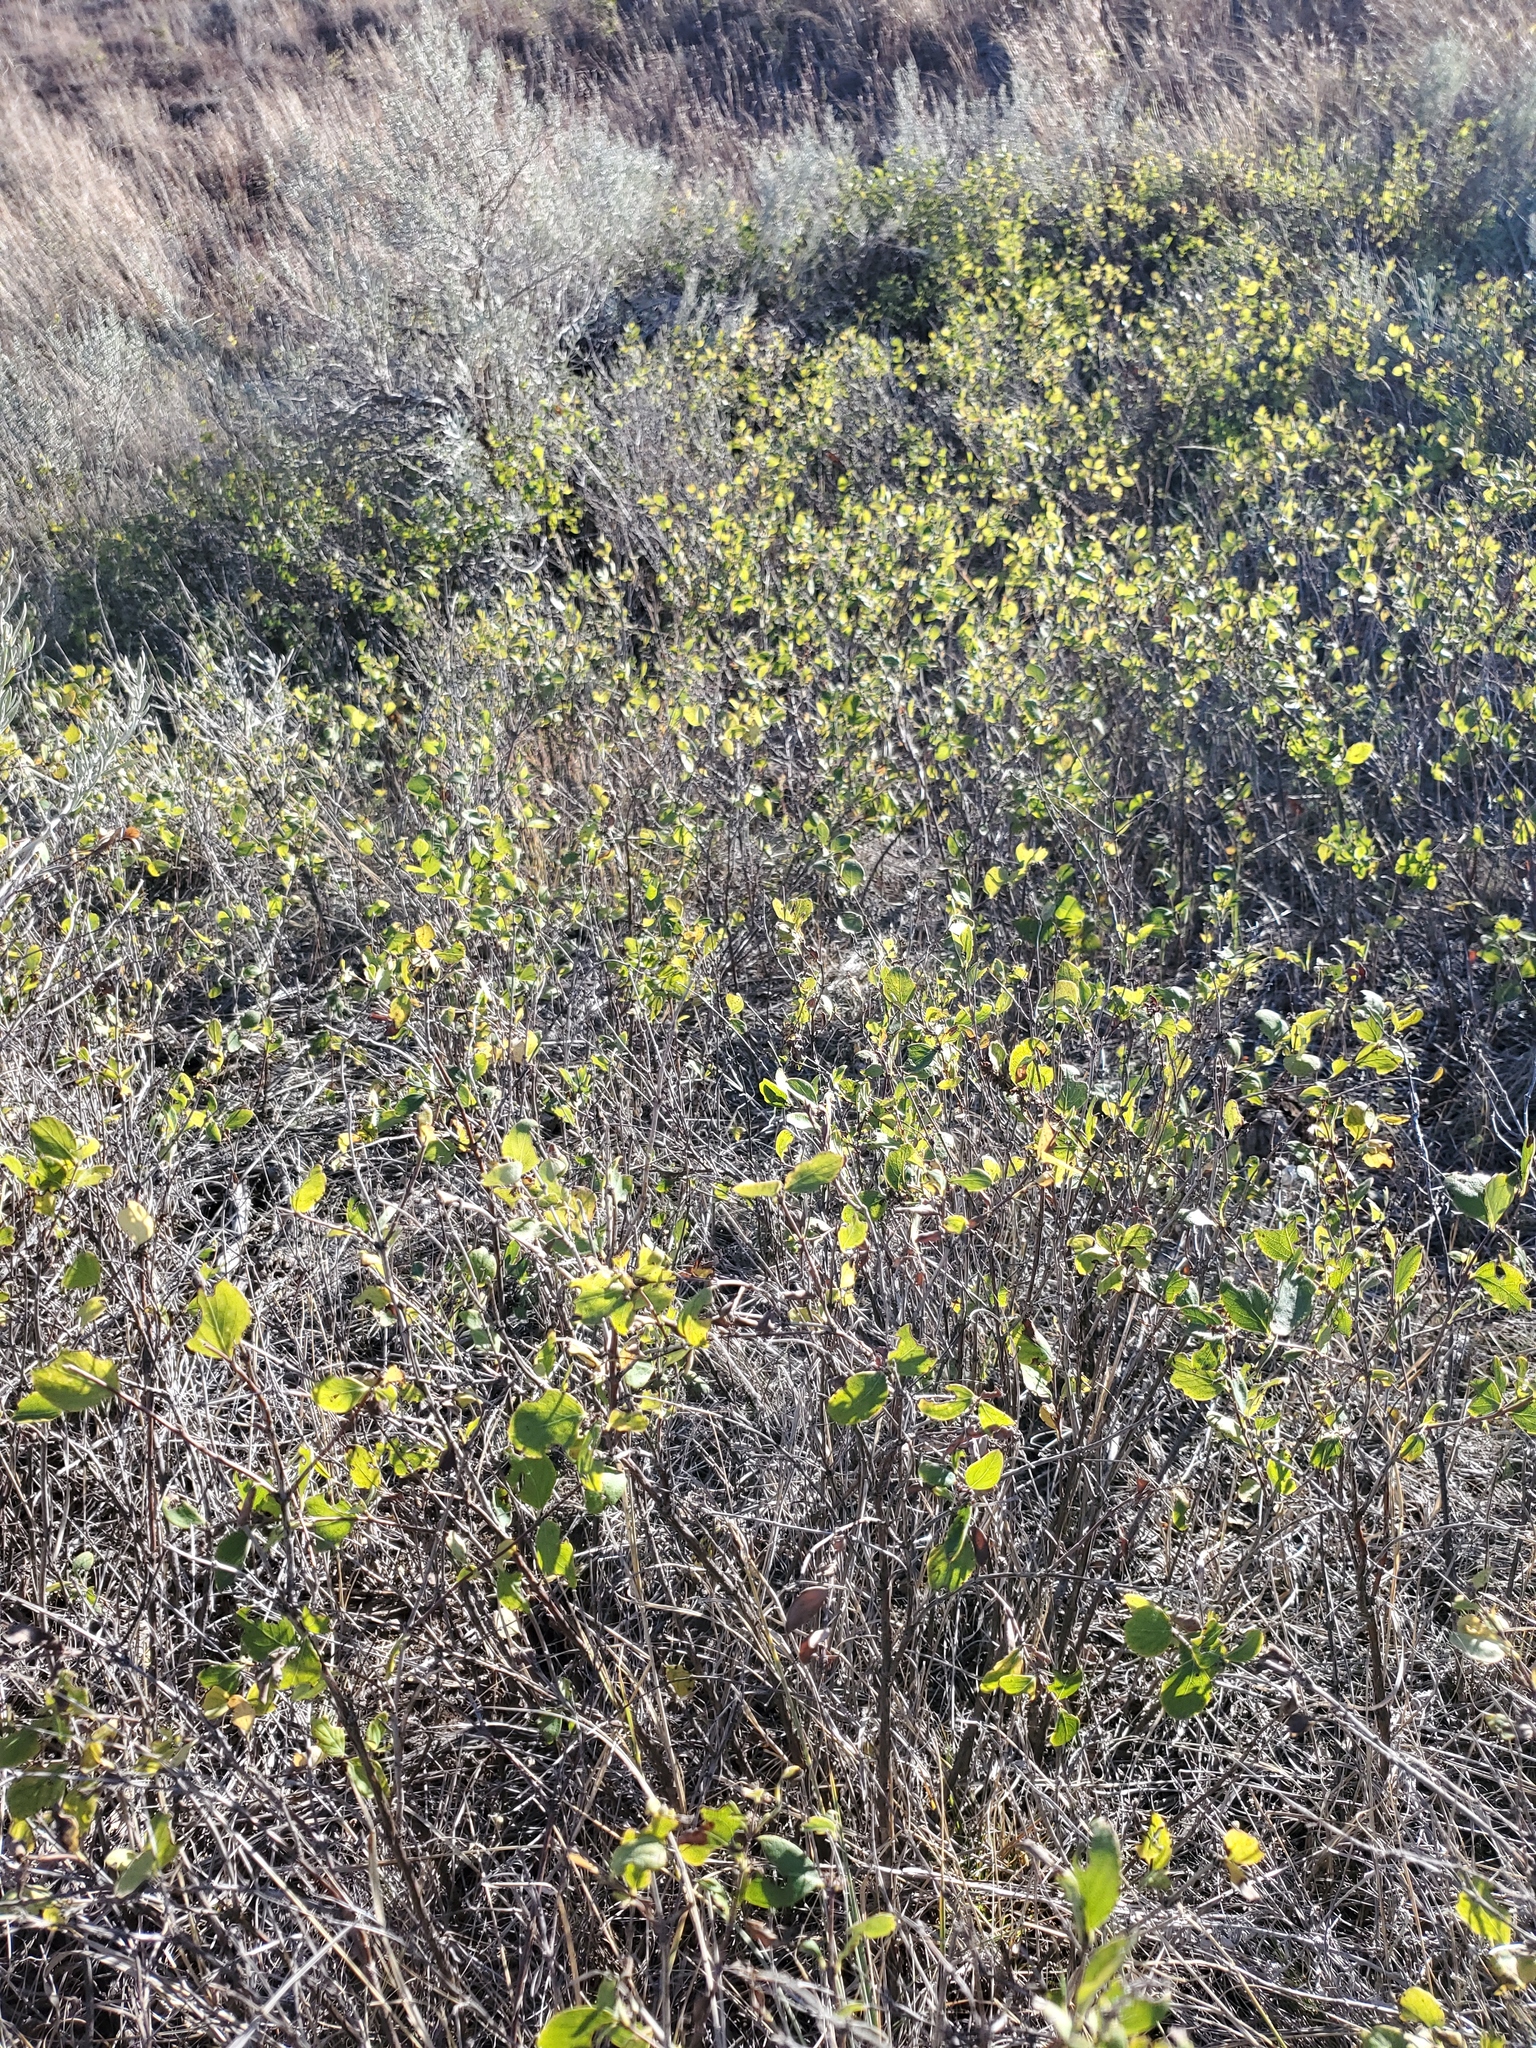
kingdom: Plantae
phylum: Tracheophyta
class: Magnoliopsida
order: Dipsacales
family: Caprifoliaceae
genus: Symphoricarpos
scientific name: Symphoricarpos occidentalis
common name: Wolfberry
